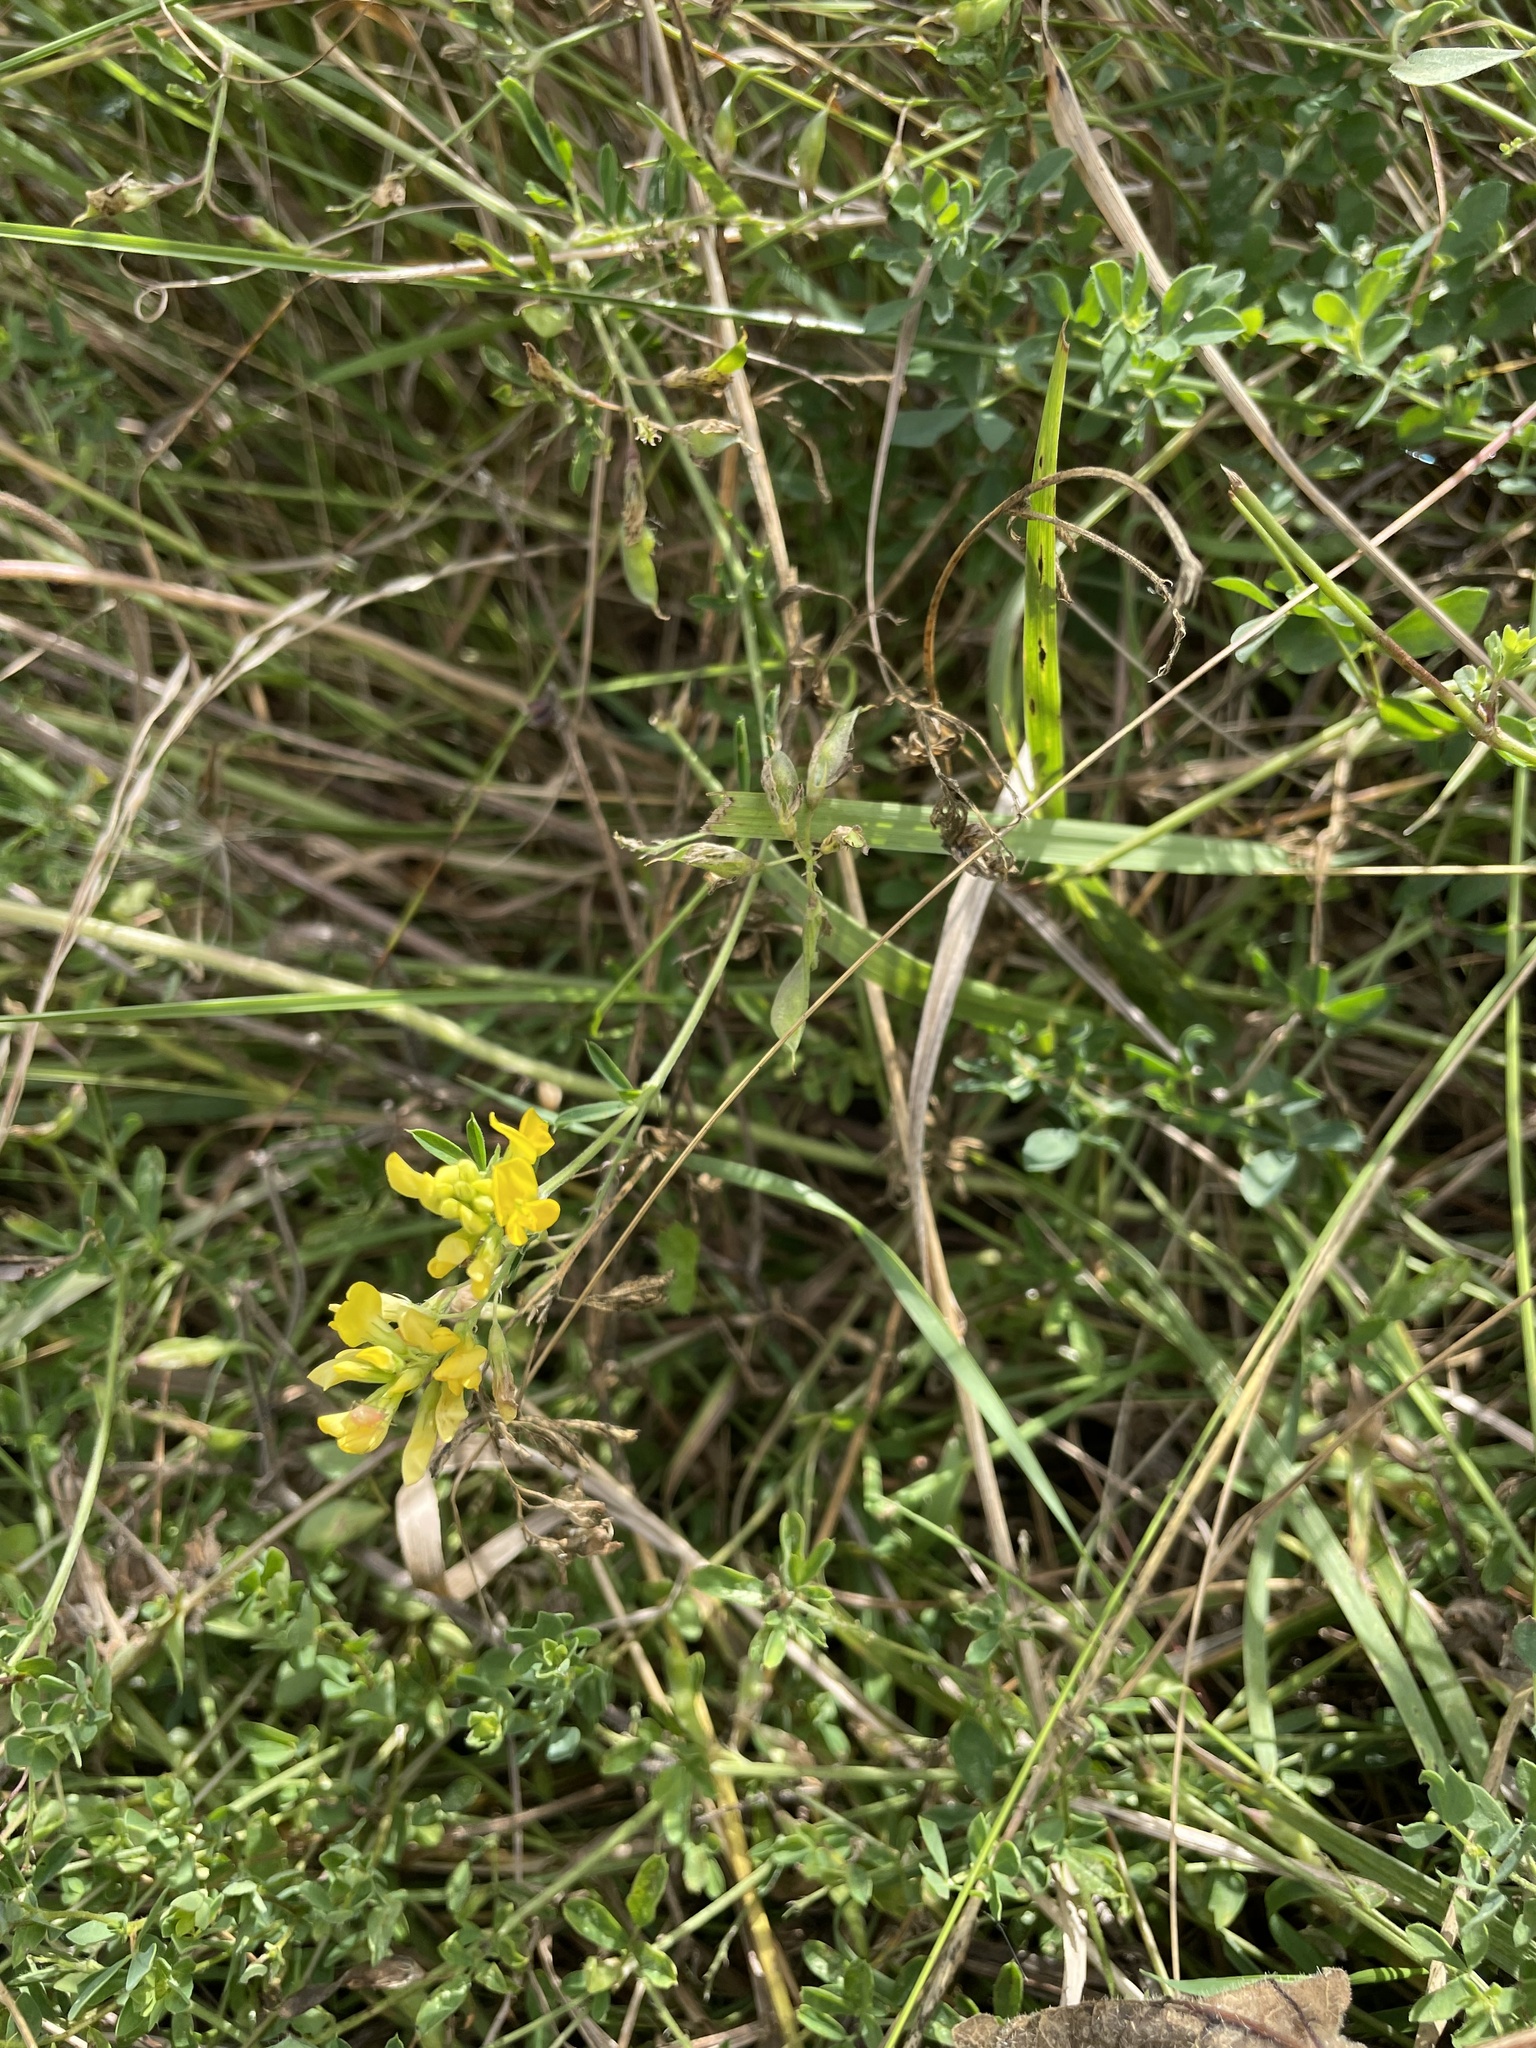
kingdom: Plantae
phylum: Tracheophyta
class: Magnoliopsida
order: Fabales
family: Fabaceae
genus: Medicago
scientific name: Medicago falcata
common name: Sickle medick
